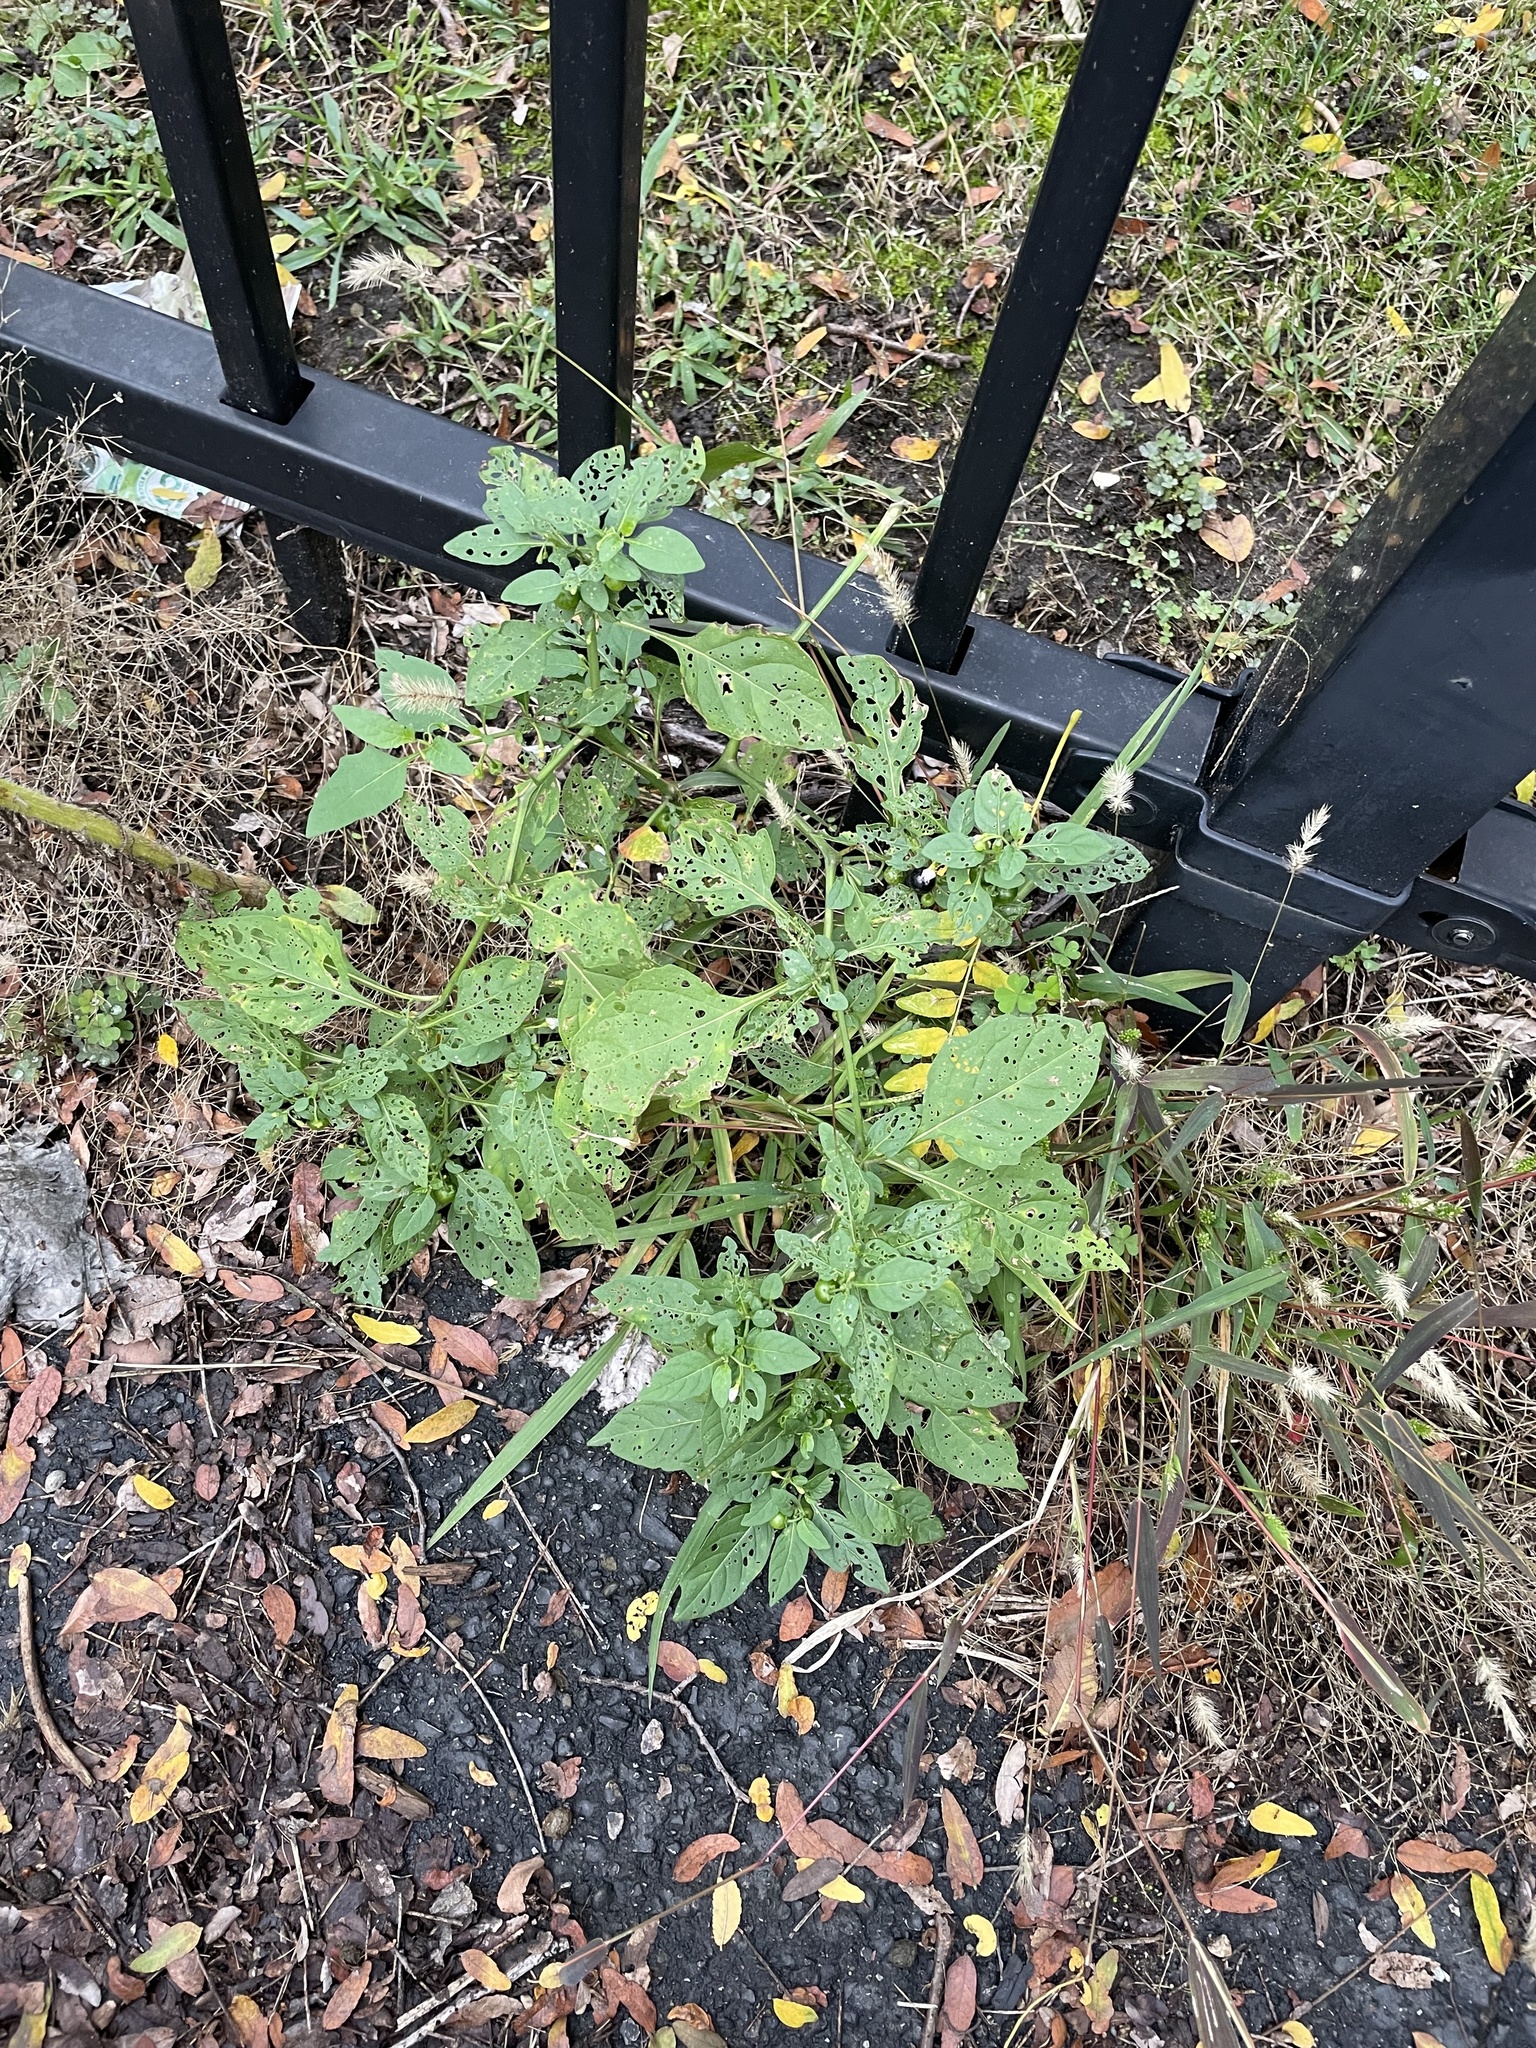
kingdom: Plantae
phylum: Tracheophyta
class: Magnoliopsida
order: Solanales
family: Solanaceae
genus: Solanum
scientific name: Solanum emulans
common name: Eastern black nightshade
